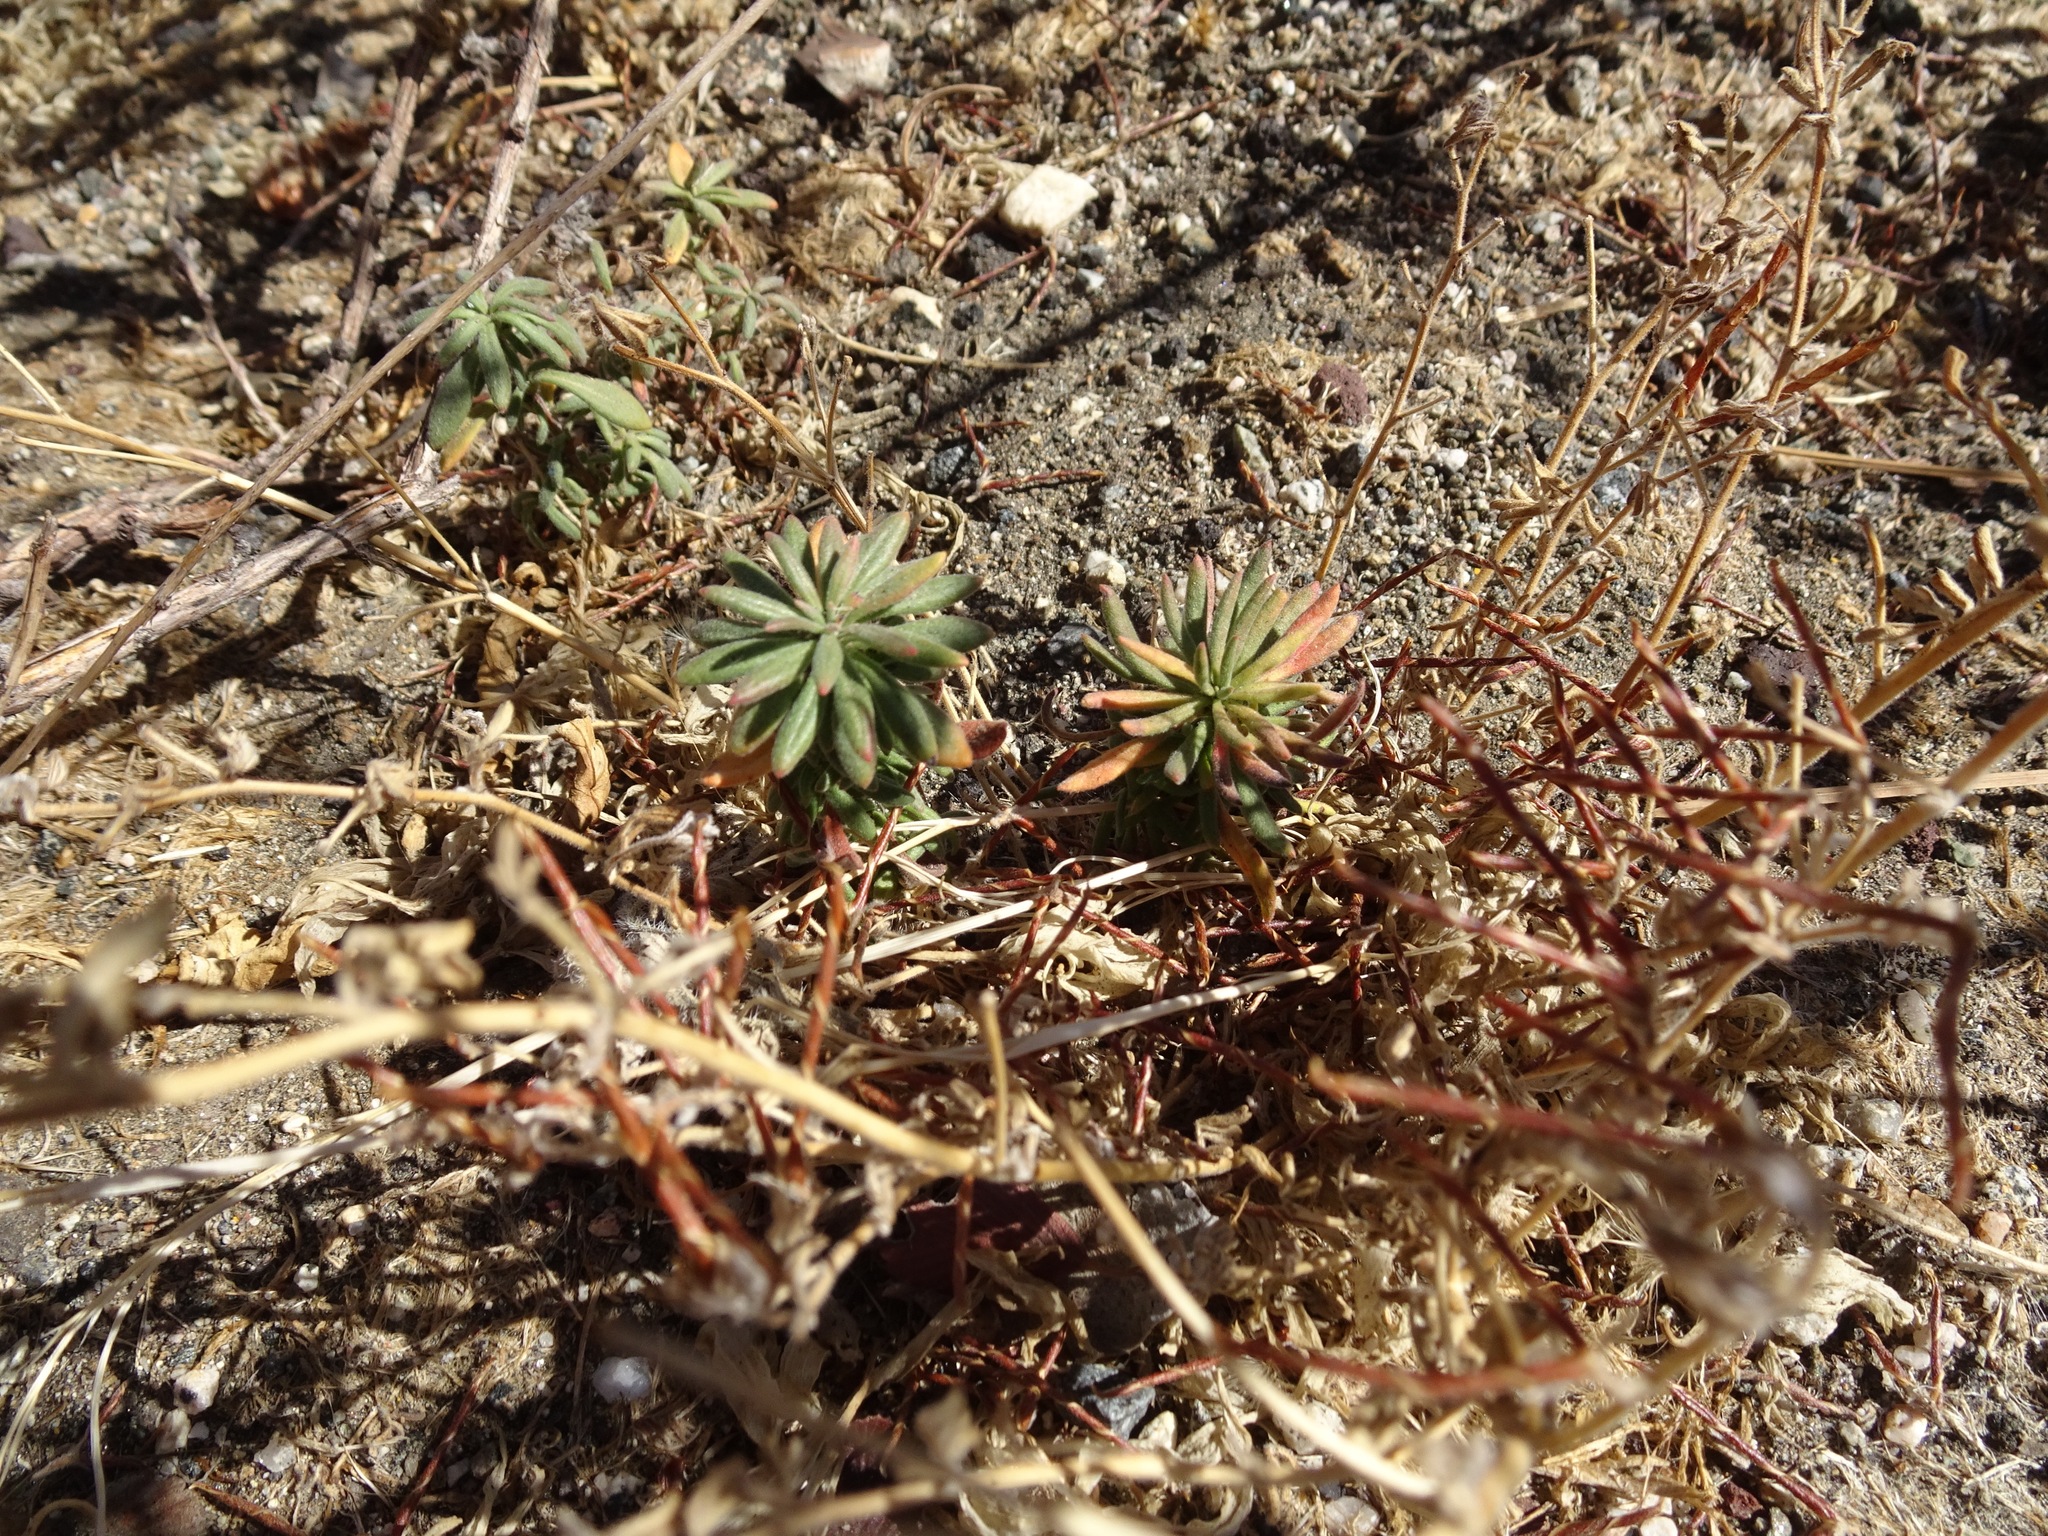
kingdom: Plantae
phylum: Tracheophyta
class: Magnoliopsida
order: Caryophyllales
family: Polygonaceae
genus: Eriogonum
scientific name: Eriogonum fasciculatum
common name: California wild buckwheat
